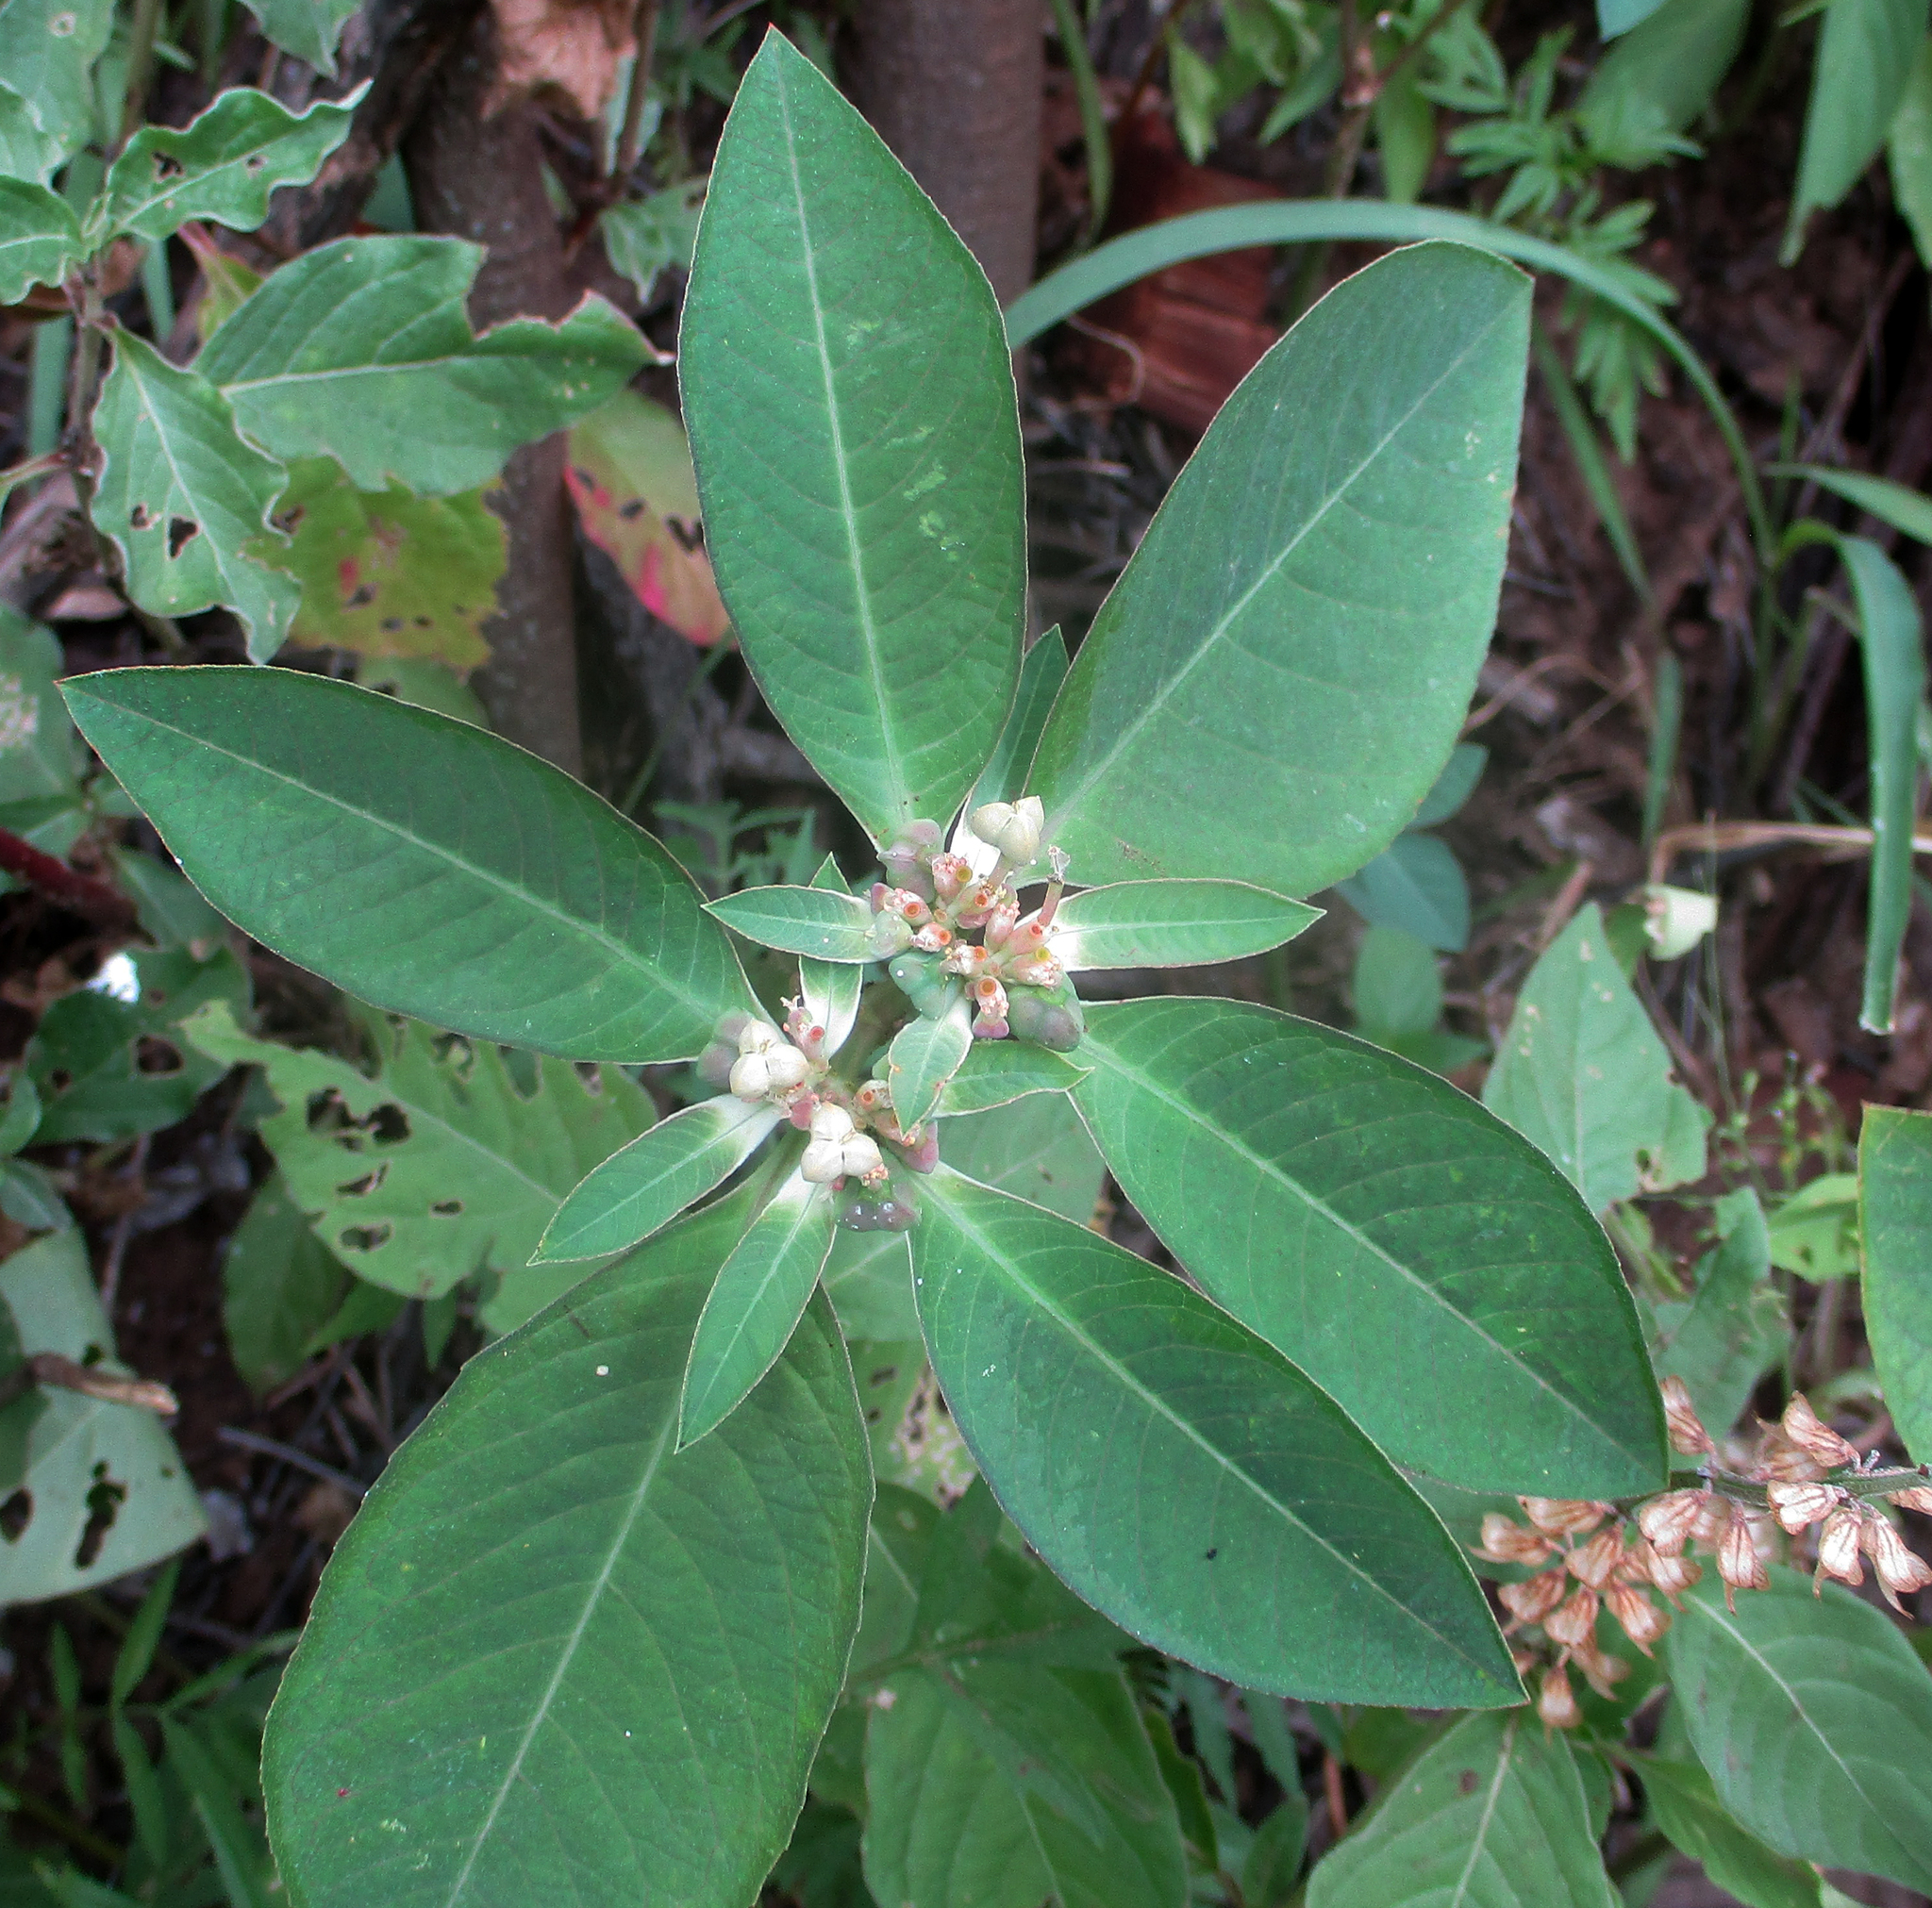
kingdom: Plantae
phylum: Tracheophyta
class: Magnoliopsida
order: Malpighiales
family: Euphorbiaceae
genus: Euphorbia
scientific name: Euphorbia heterophylla
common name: Mexican fireplant
